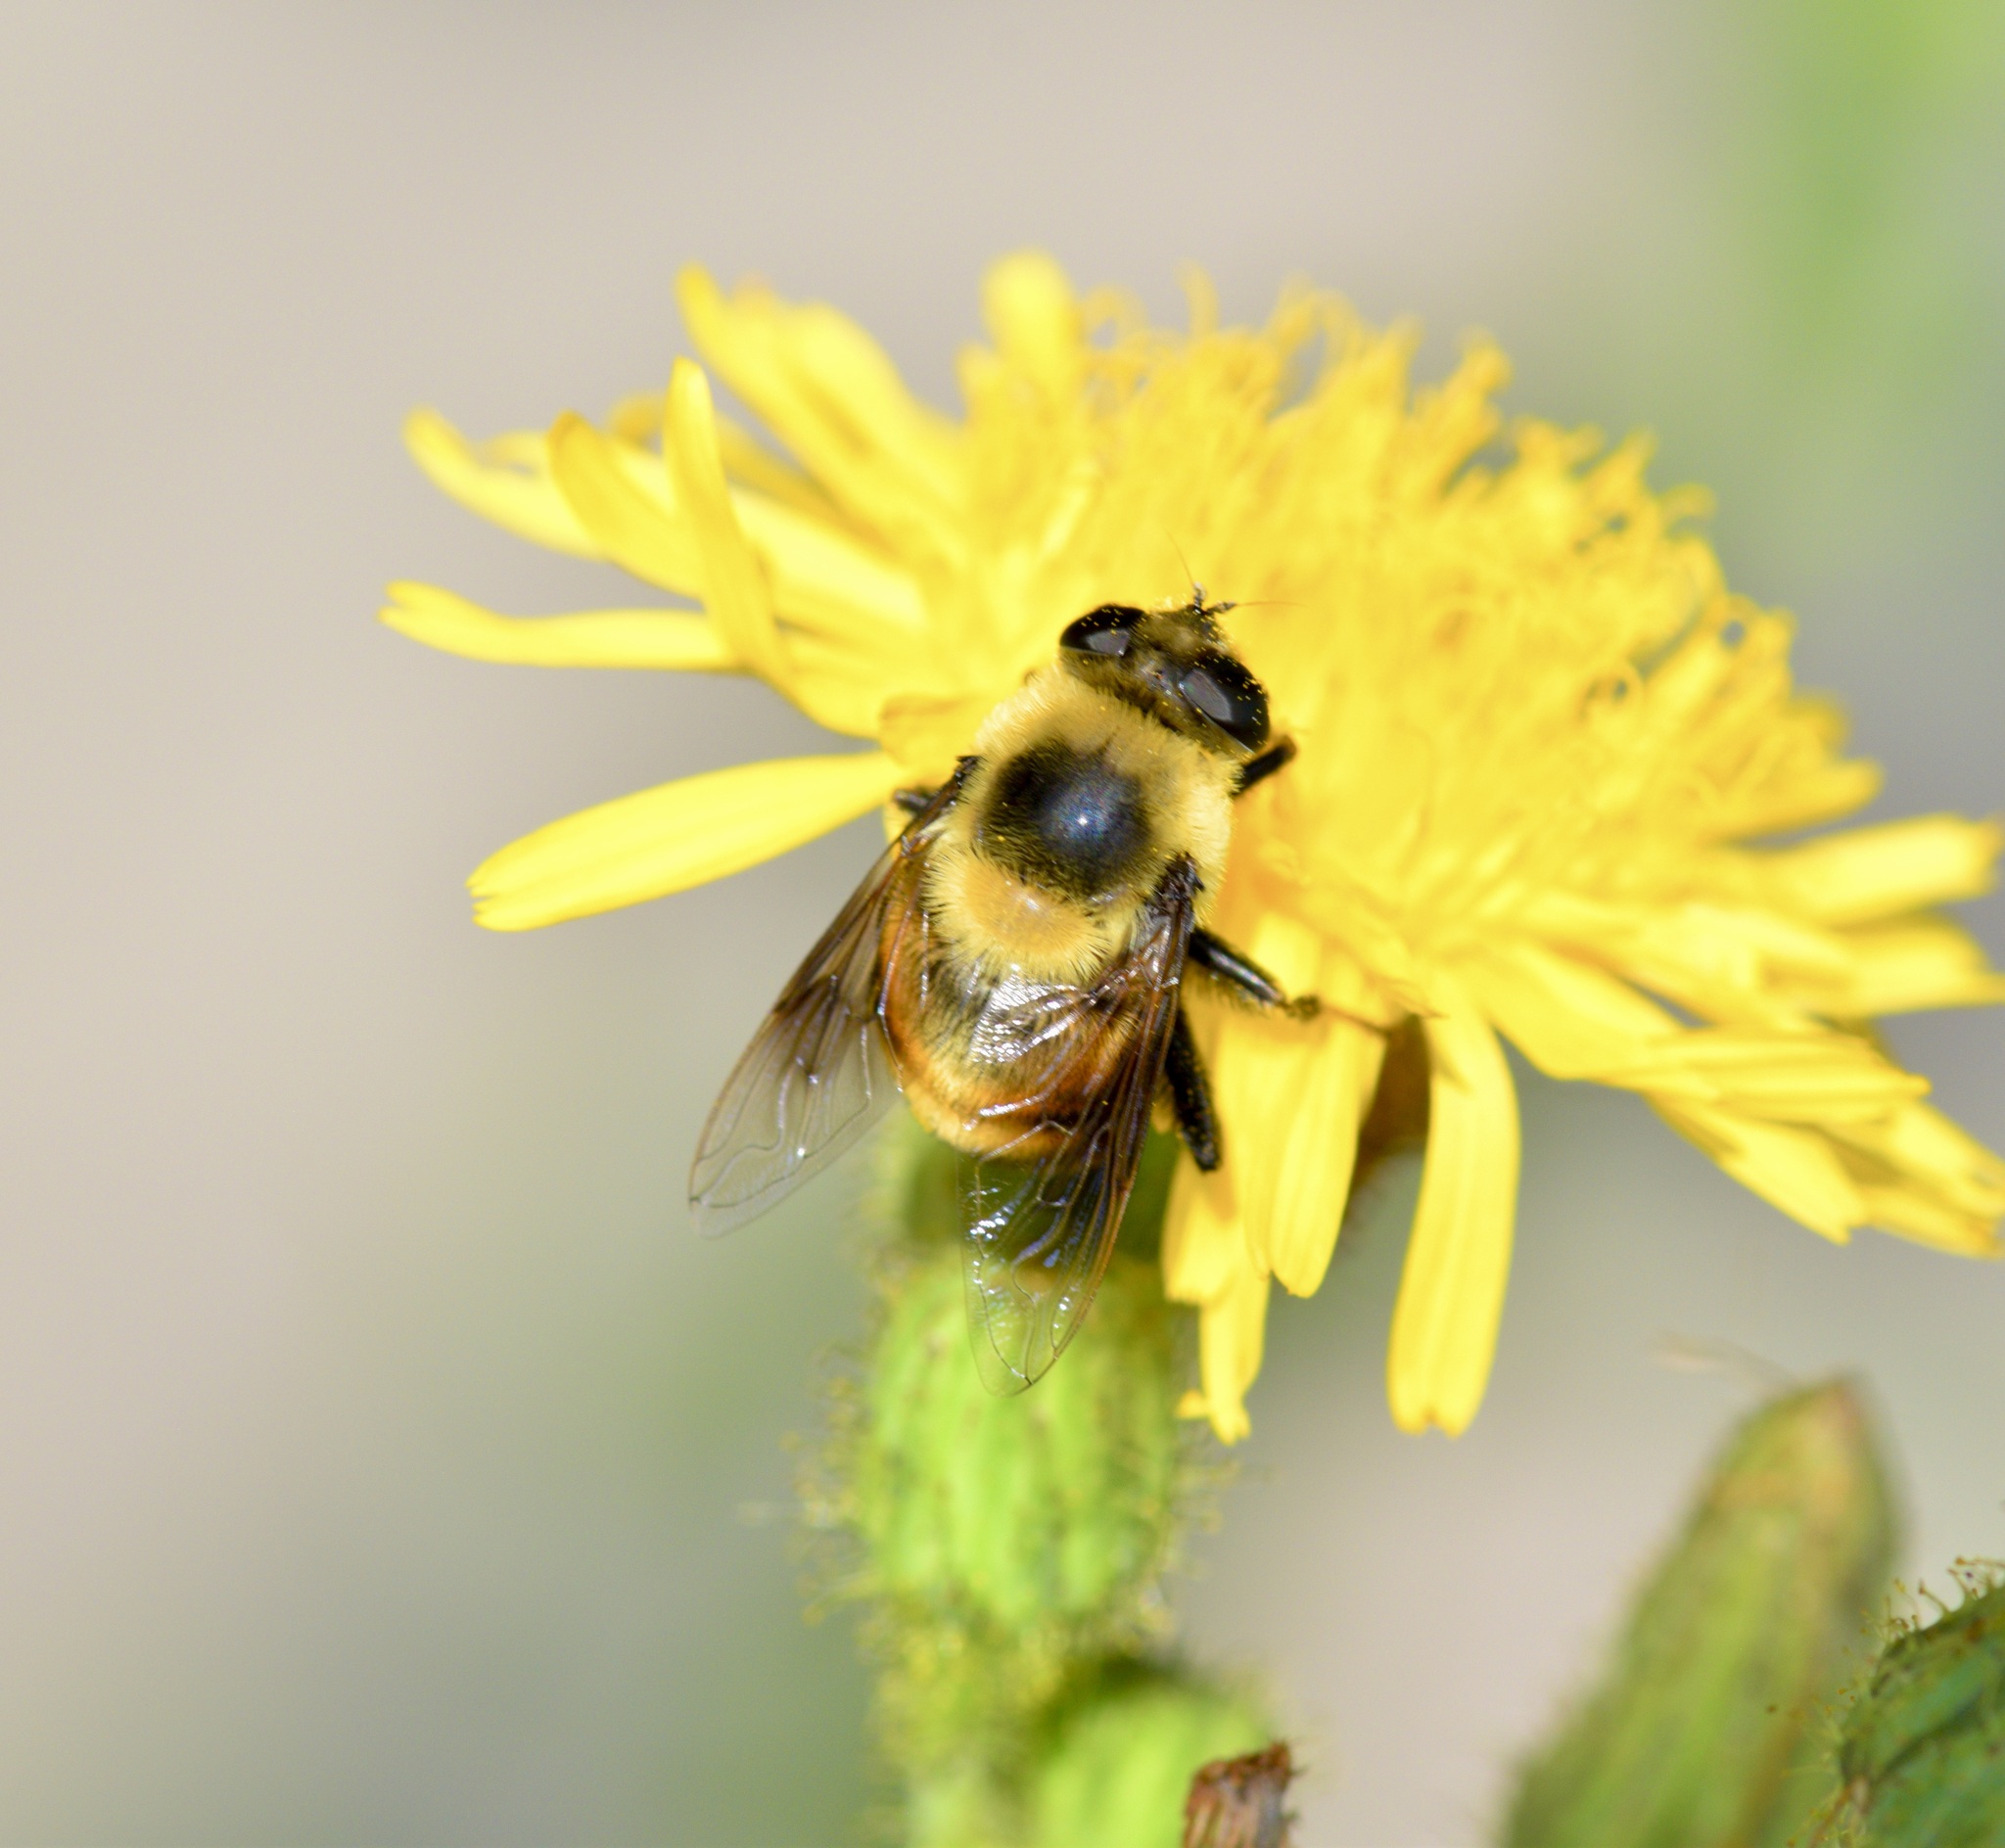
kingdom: Animalia
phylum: Arthropoda
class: Insecta
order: Diptera
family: Syrphidae
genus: Eristalis
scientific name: Eristalis flavipes
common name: Orange-legged drone fly
